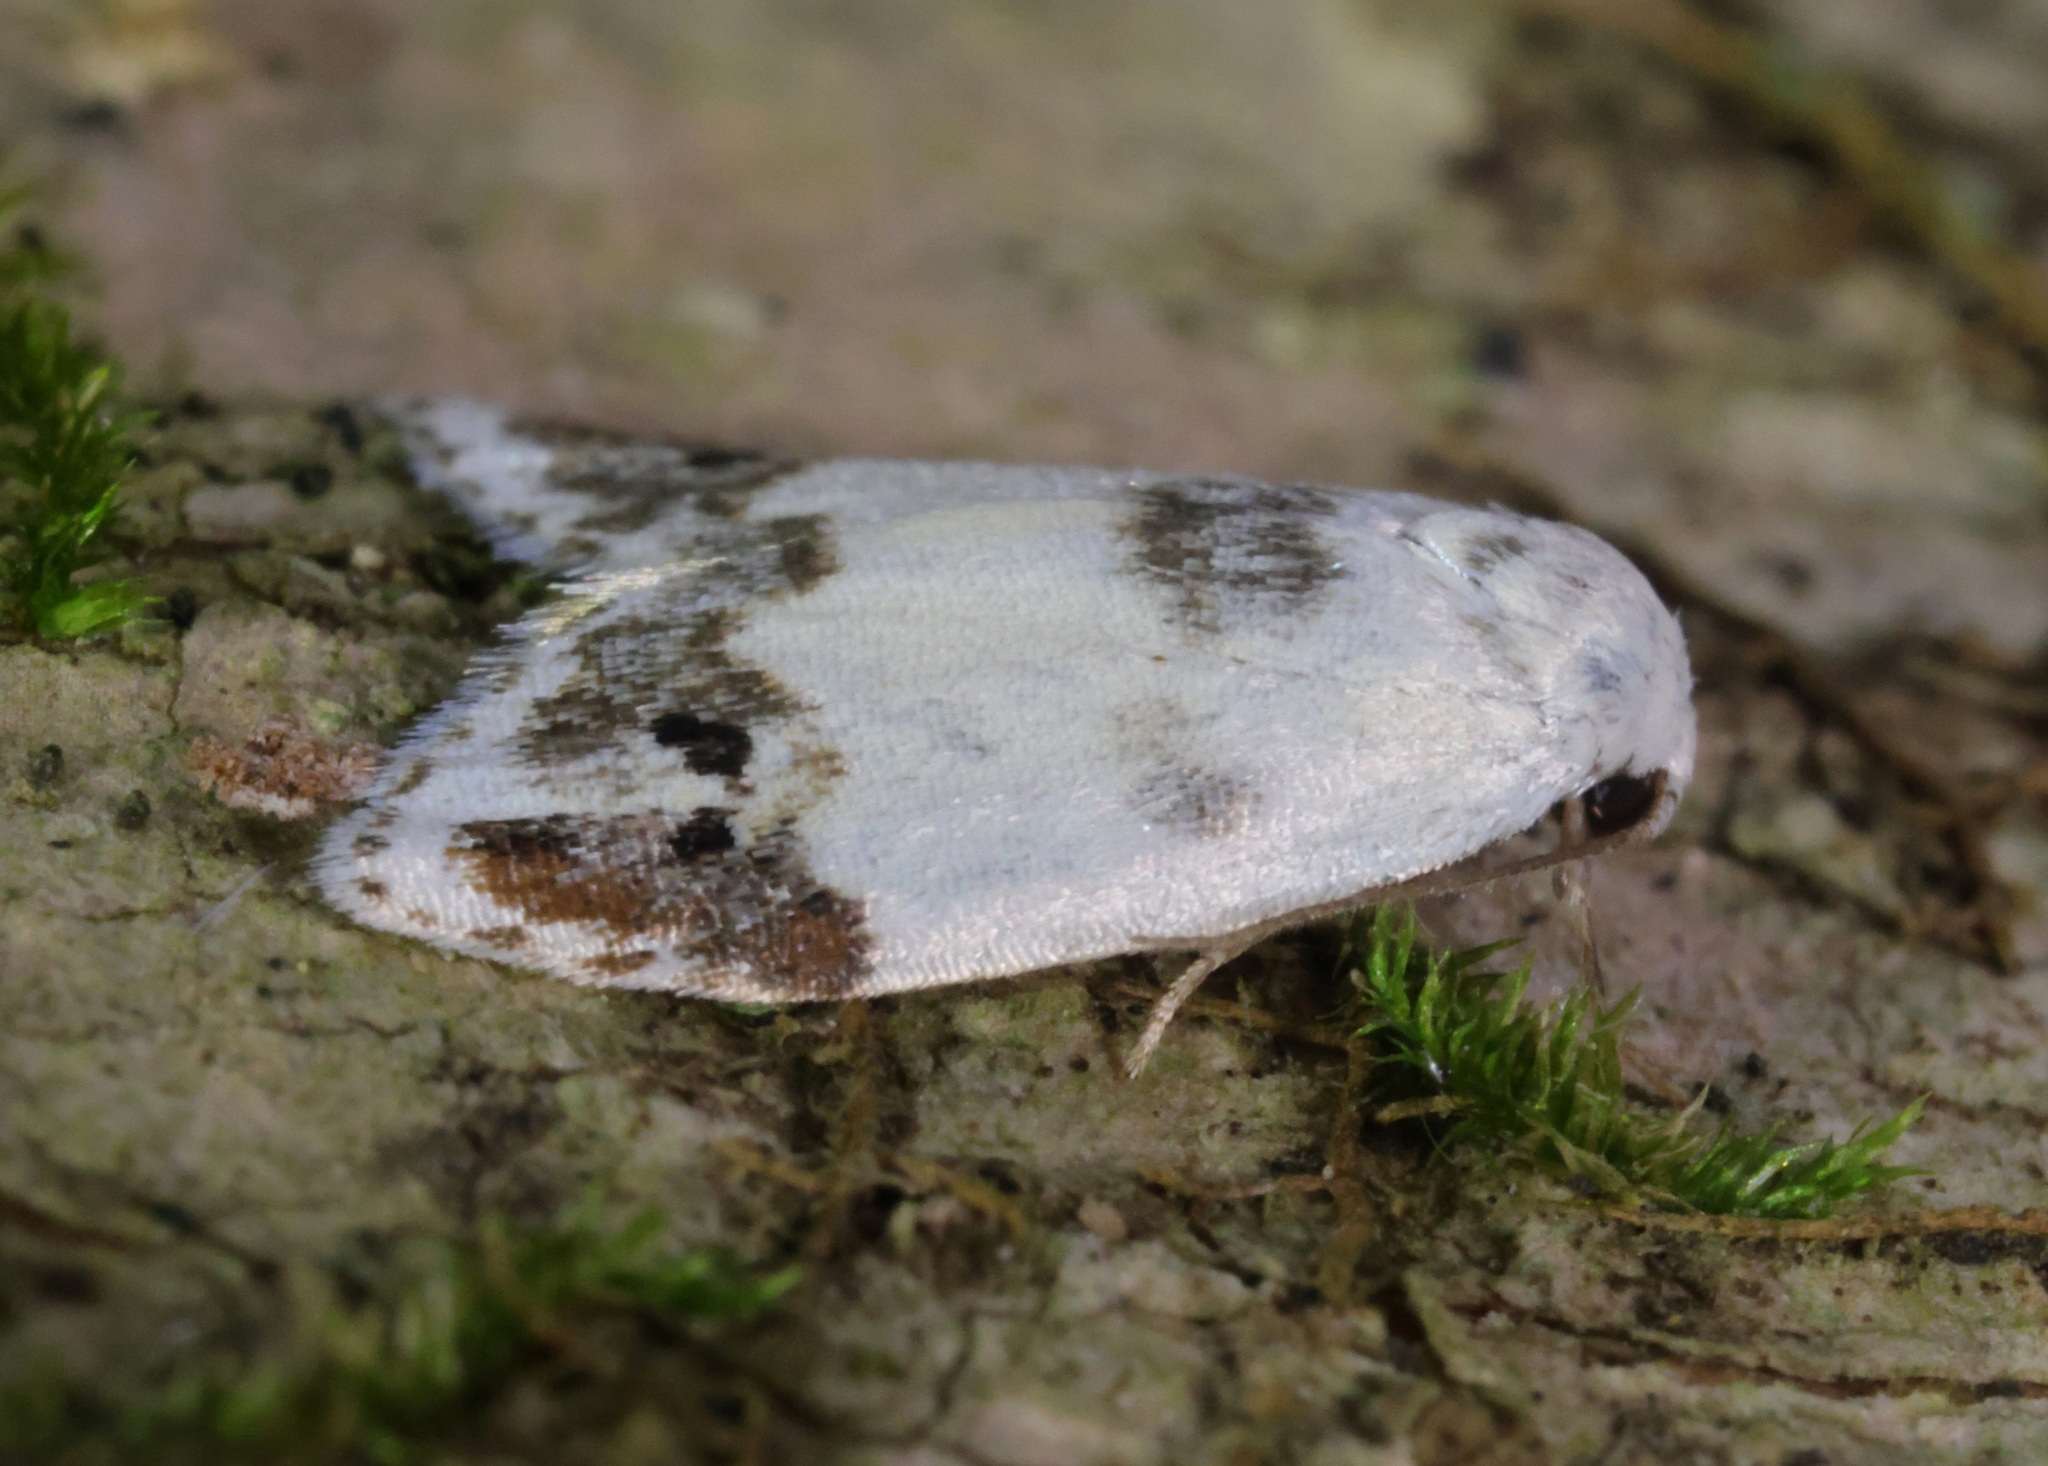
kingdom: Animalia
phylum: Arthropoda
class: Insecta
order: Lepidoptera
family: Erebidae
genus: Neoduma
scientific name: Neoduma kuangtungensis
